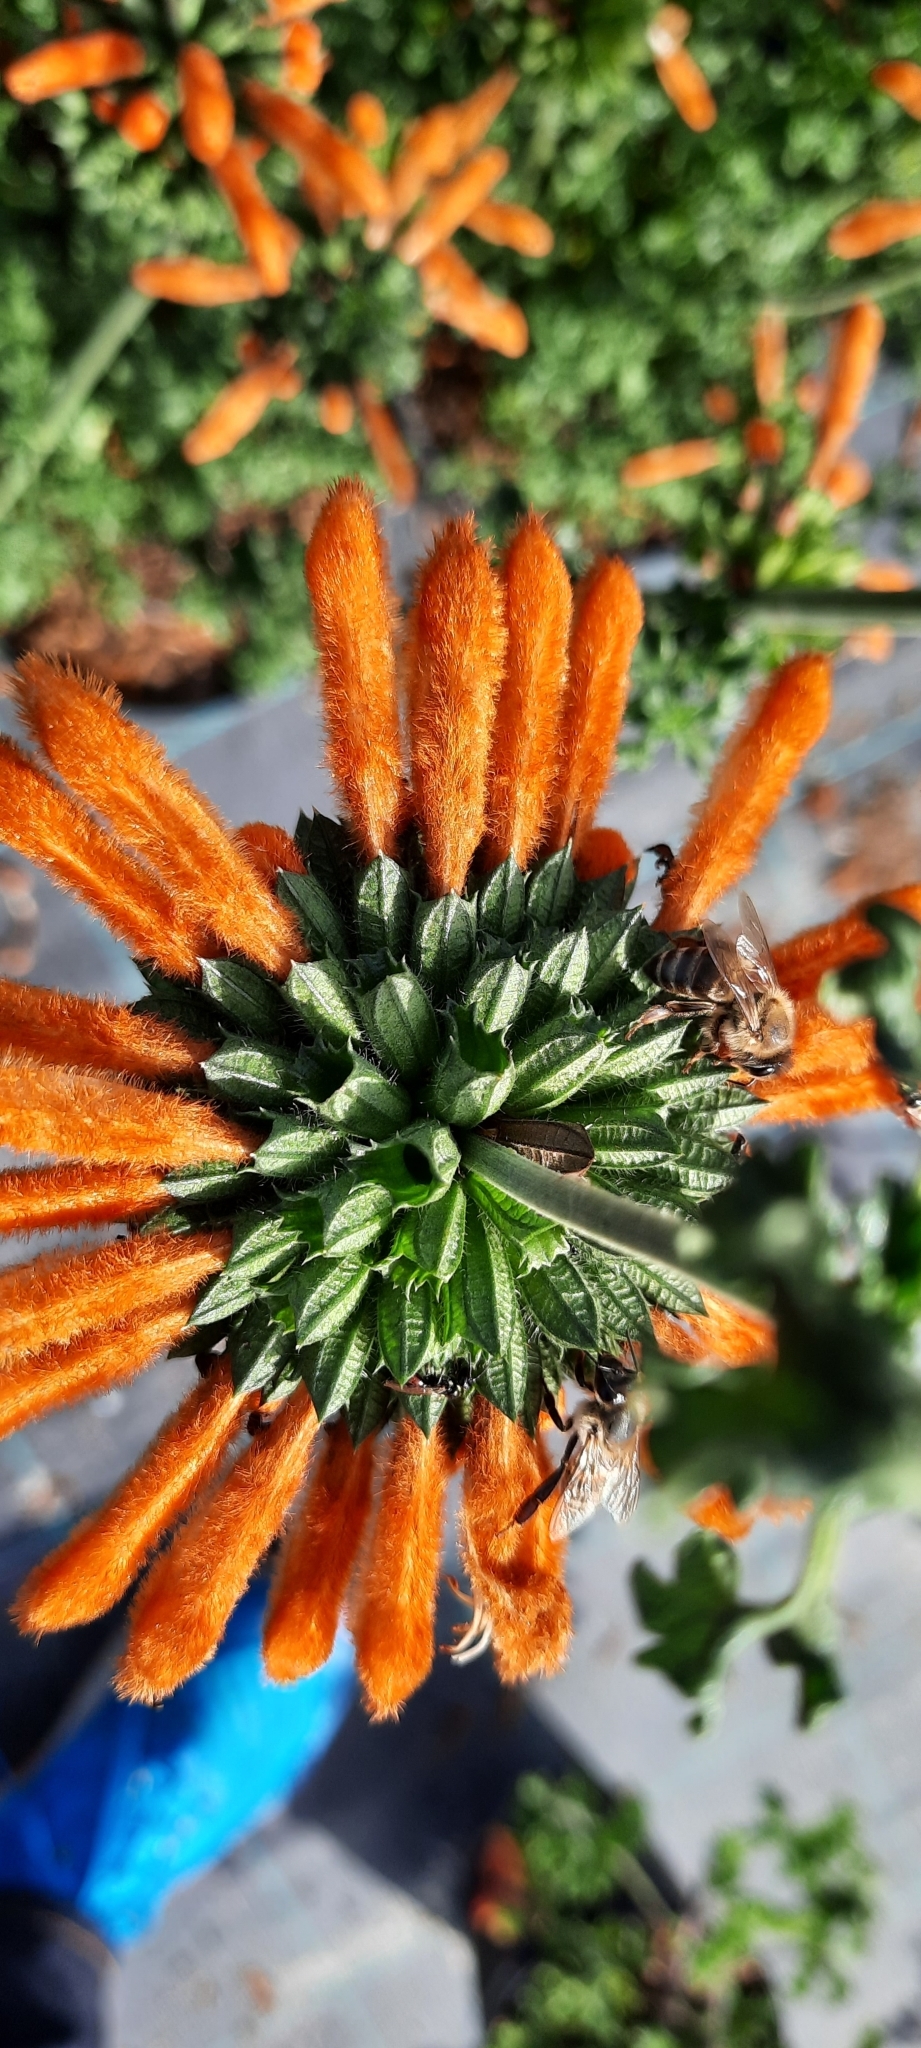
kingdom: Animalia
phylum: Arthropoda
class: Insecta
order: Hymenoptera
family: Apidae
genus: Apis
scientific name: Apis mellifera
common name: Honey bee
